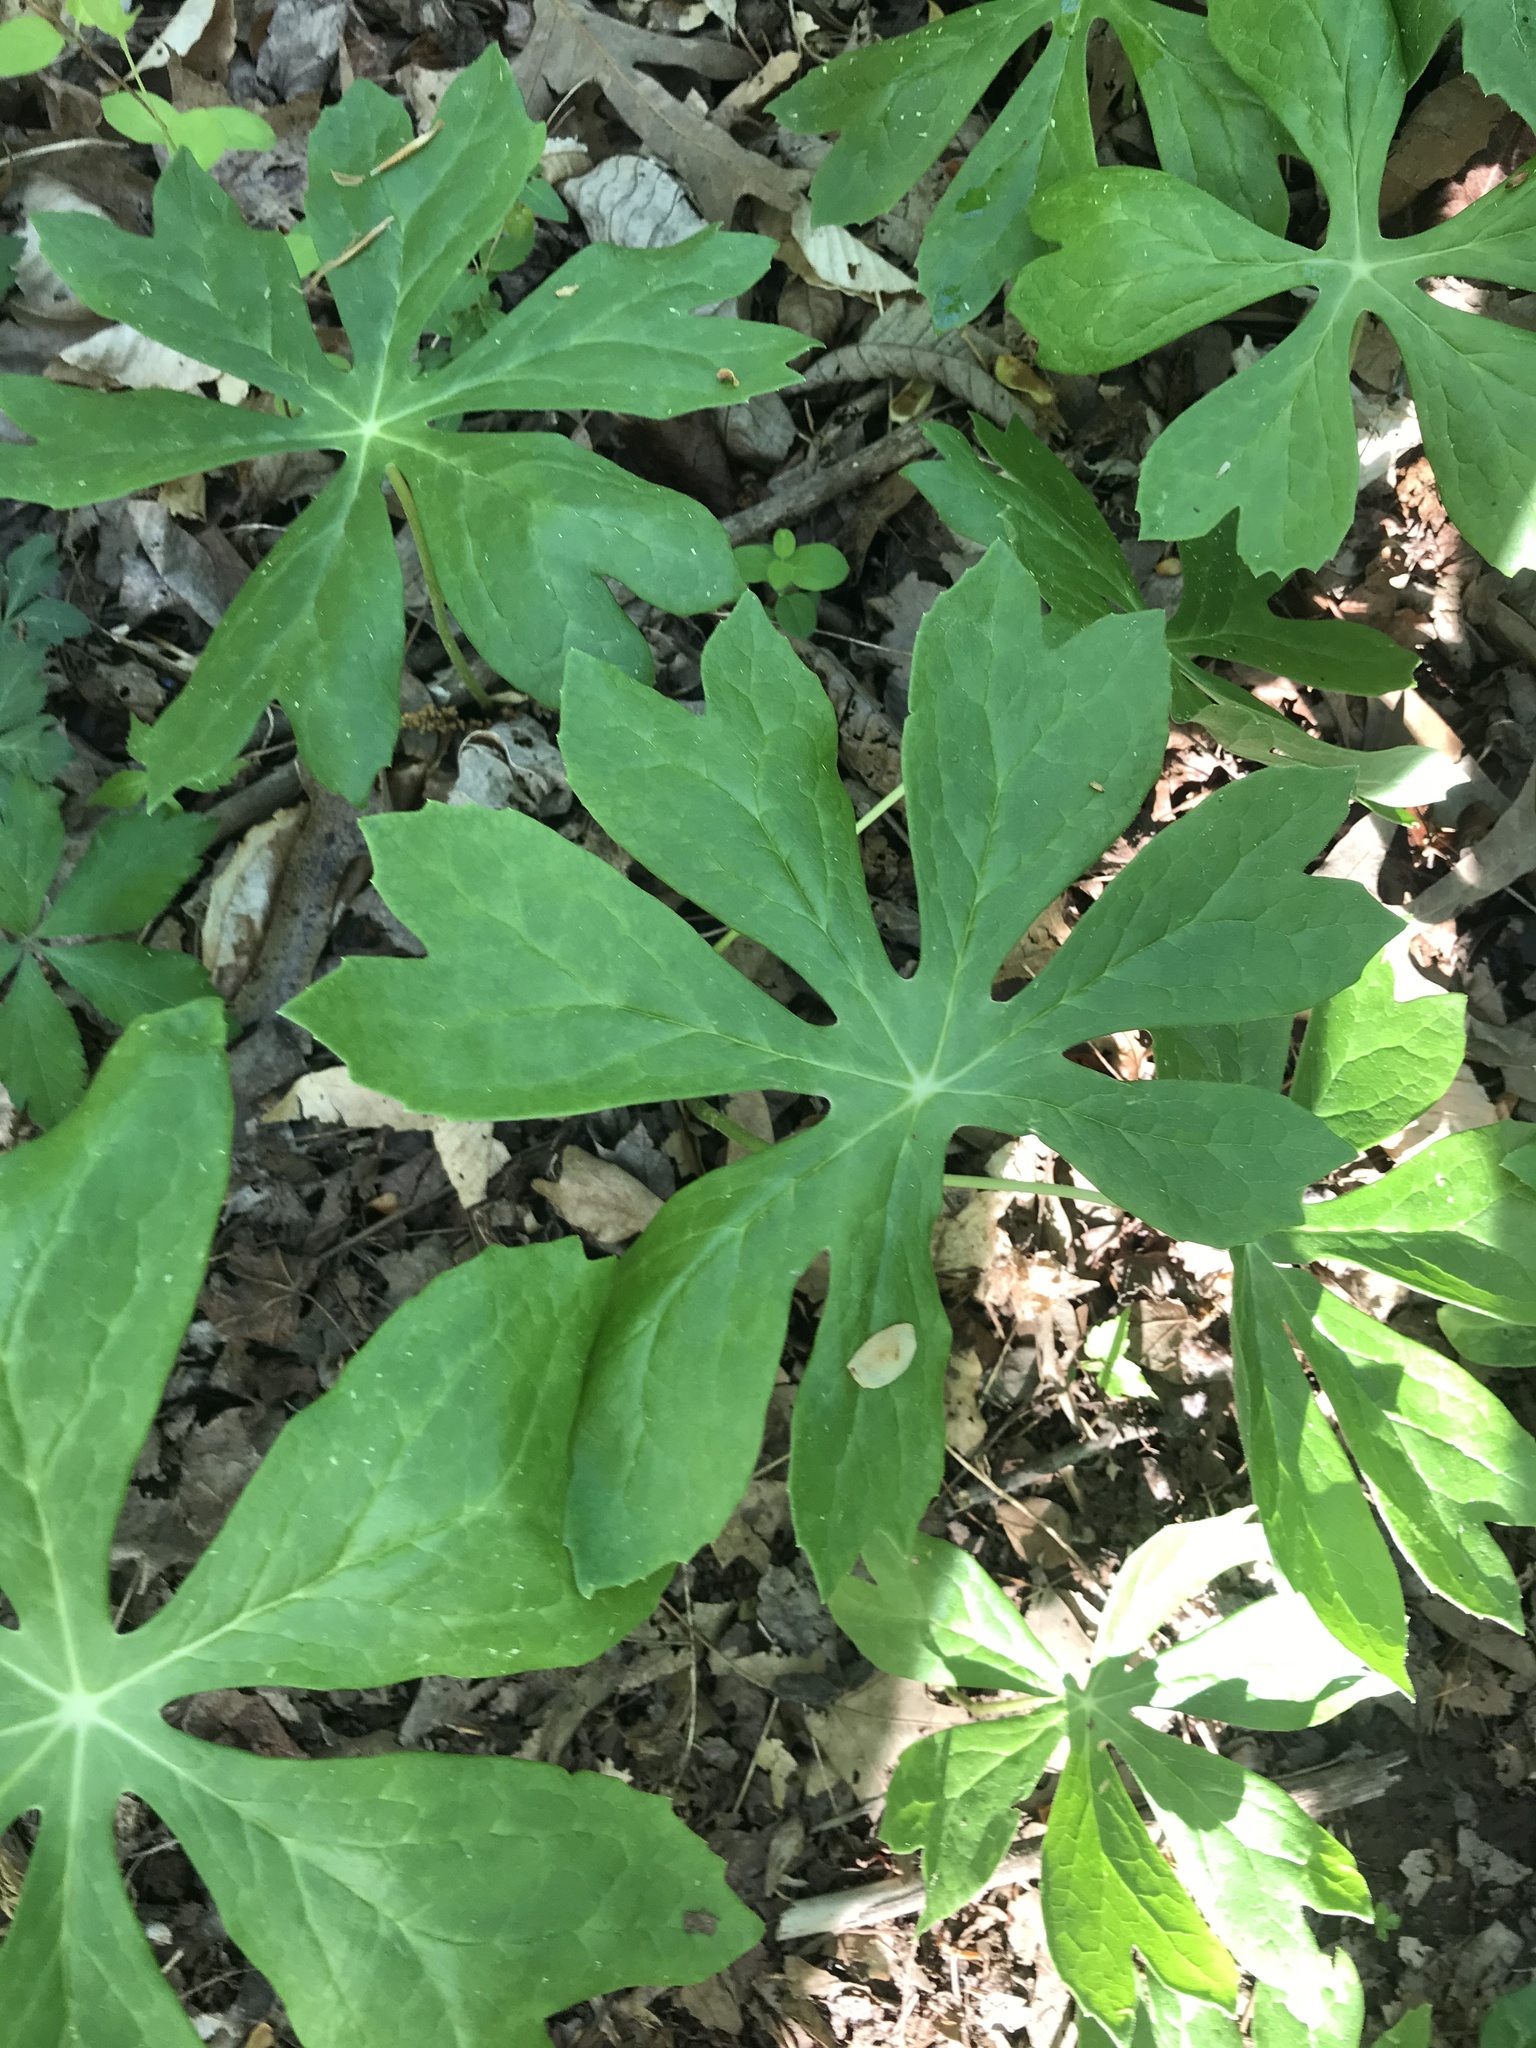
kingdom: Plantae
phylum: Tracheophyta
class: Magnoliopsida
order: Ranunculales
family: Berberidaceae
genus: Podophyllum
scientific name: Podophyllum peltatum
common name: Wild mandrake
